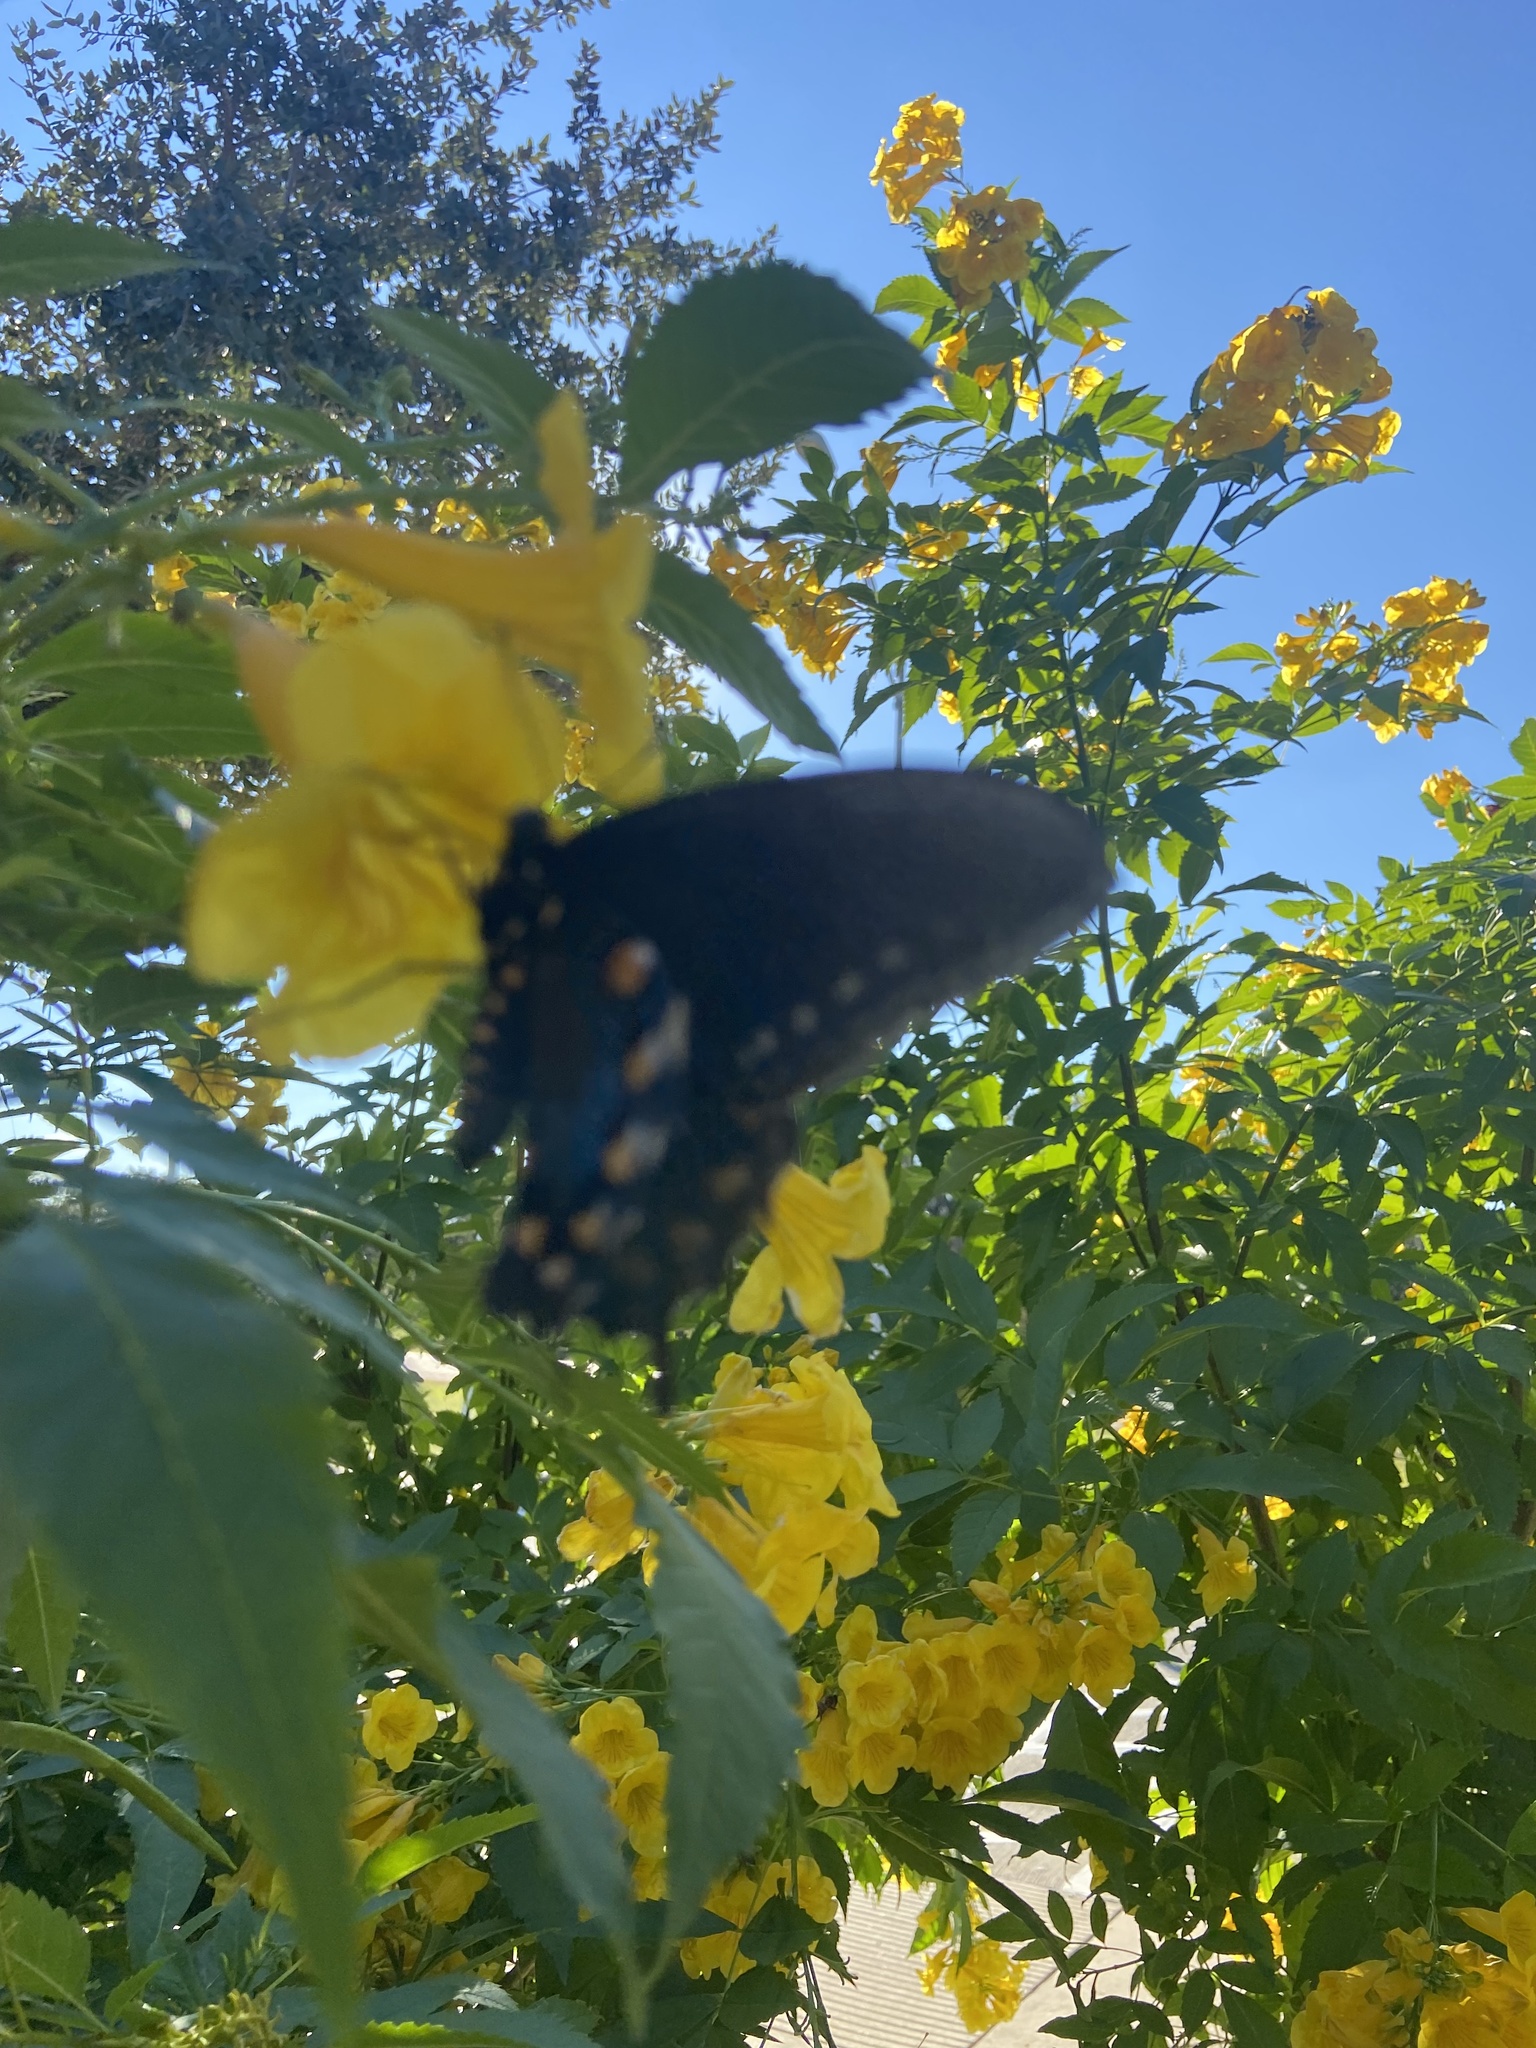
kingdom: Animalia
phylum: Arthropoda
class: Insecta
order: Lepidoptera
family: Papilionidae
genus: Battus
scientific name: Battus philenor
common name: Pipevine swallowtail
